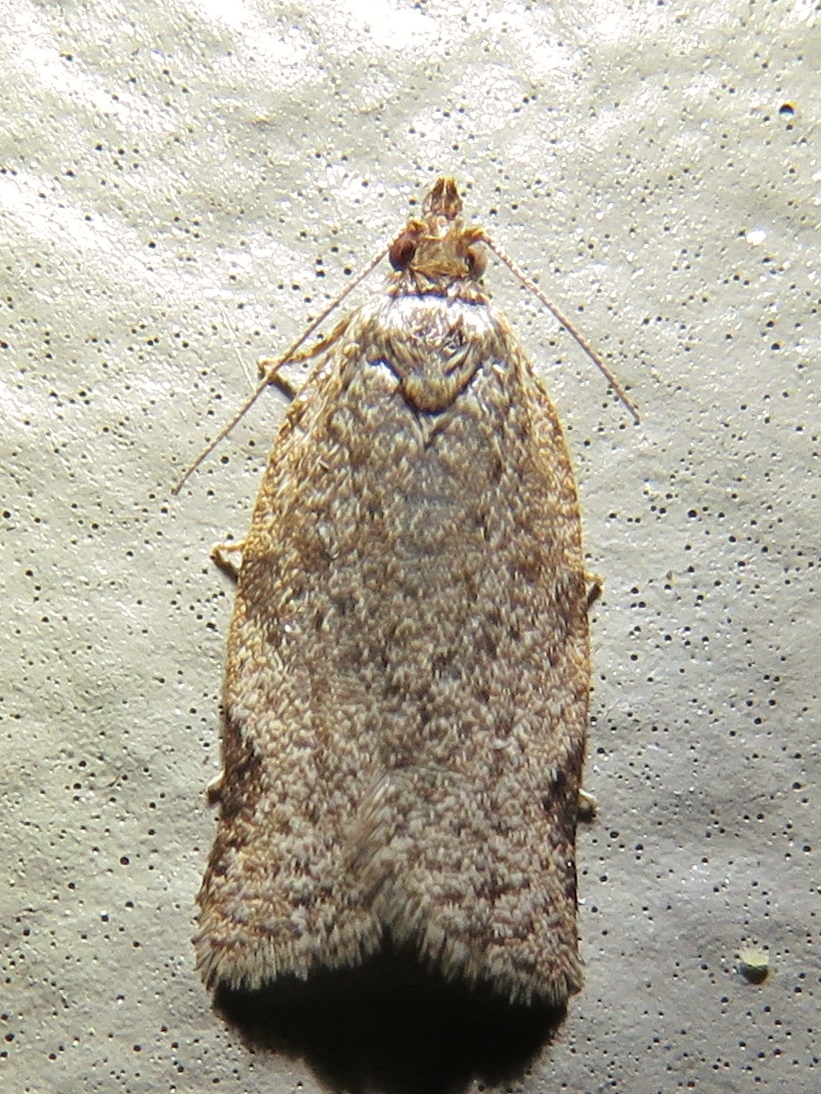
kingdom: Animalia
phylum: Arthropoda
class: Insecta
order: Lepidoptera
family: Tortricidae
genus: Clepsis
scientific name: Clepsis virescana
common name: Greenish apple moth
